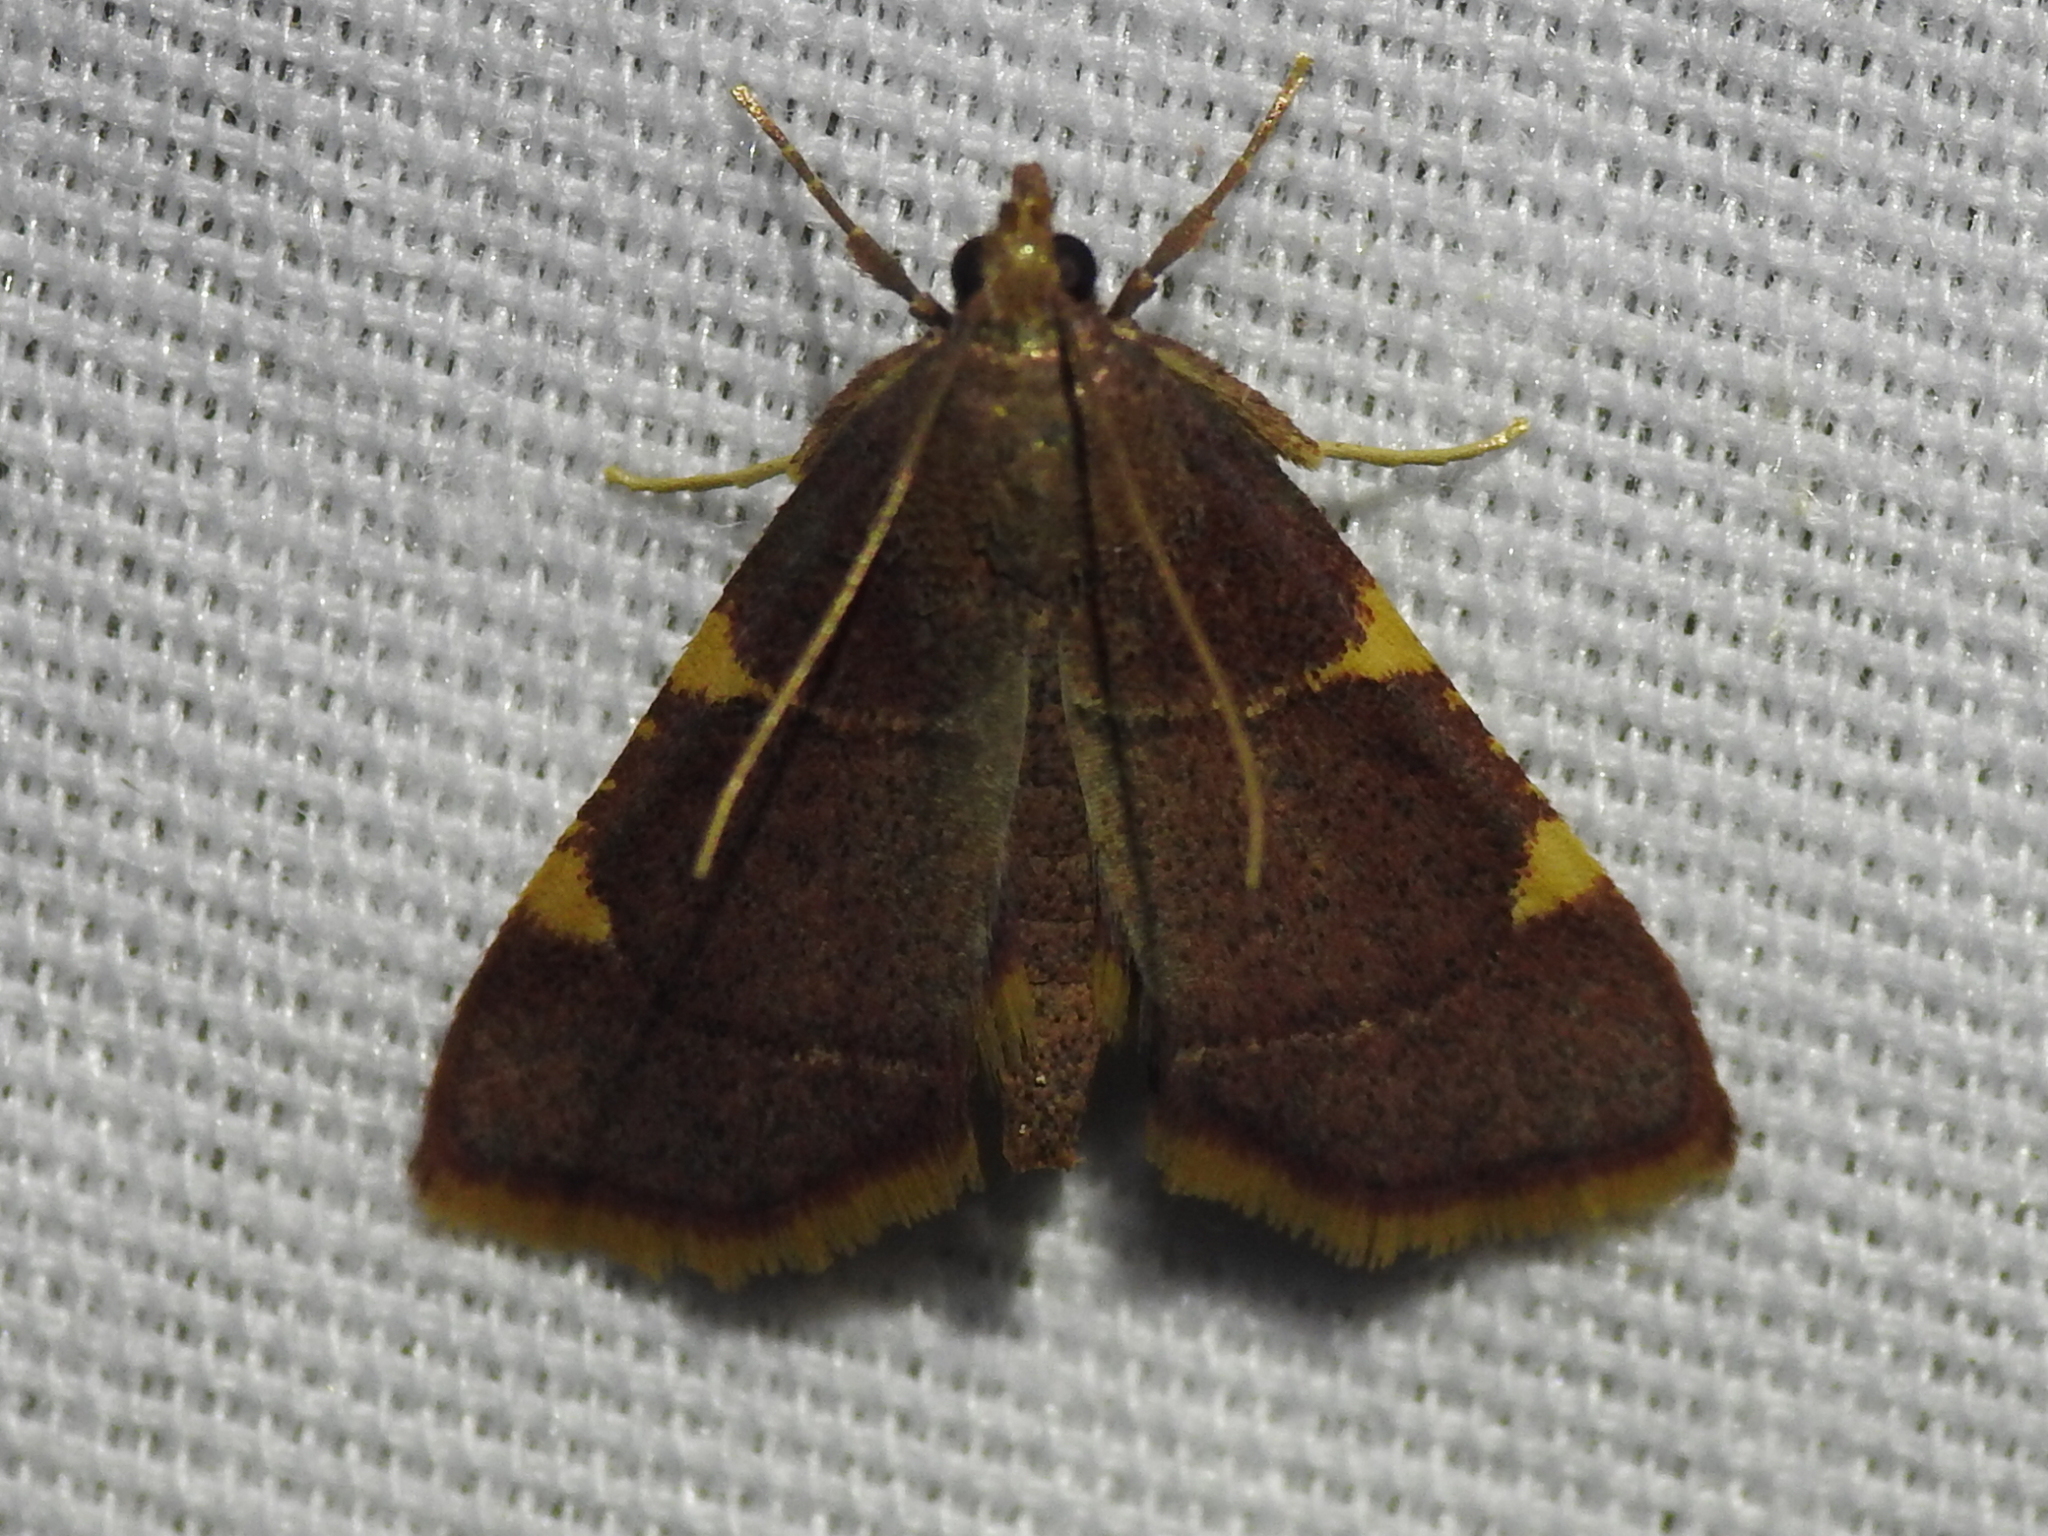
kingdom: Animalia
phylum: Arthropoda
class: Insecta
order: Lepidoptera
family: Pyralidae
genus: Hypsopygia
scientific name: Hypsopygia olinalis
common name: Yellow-fringed dolichomia moth
